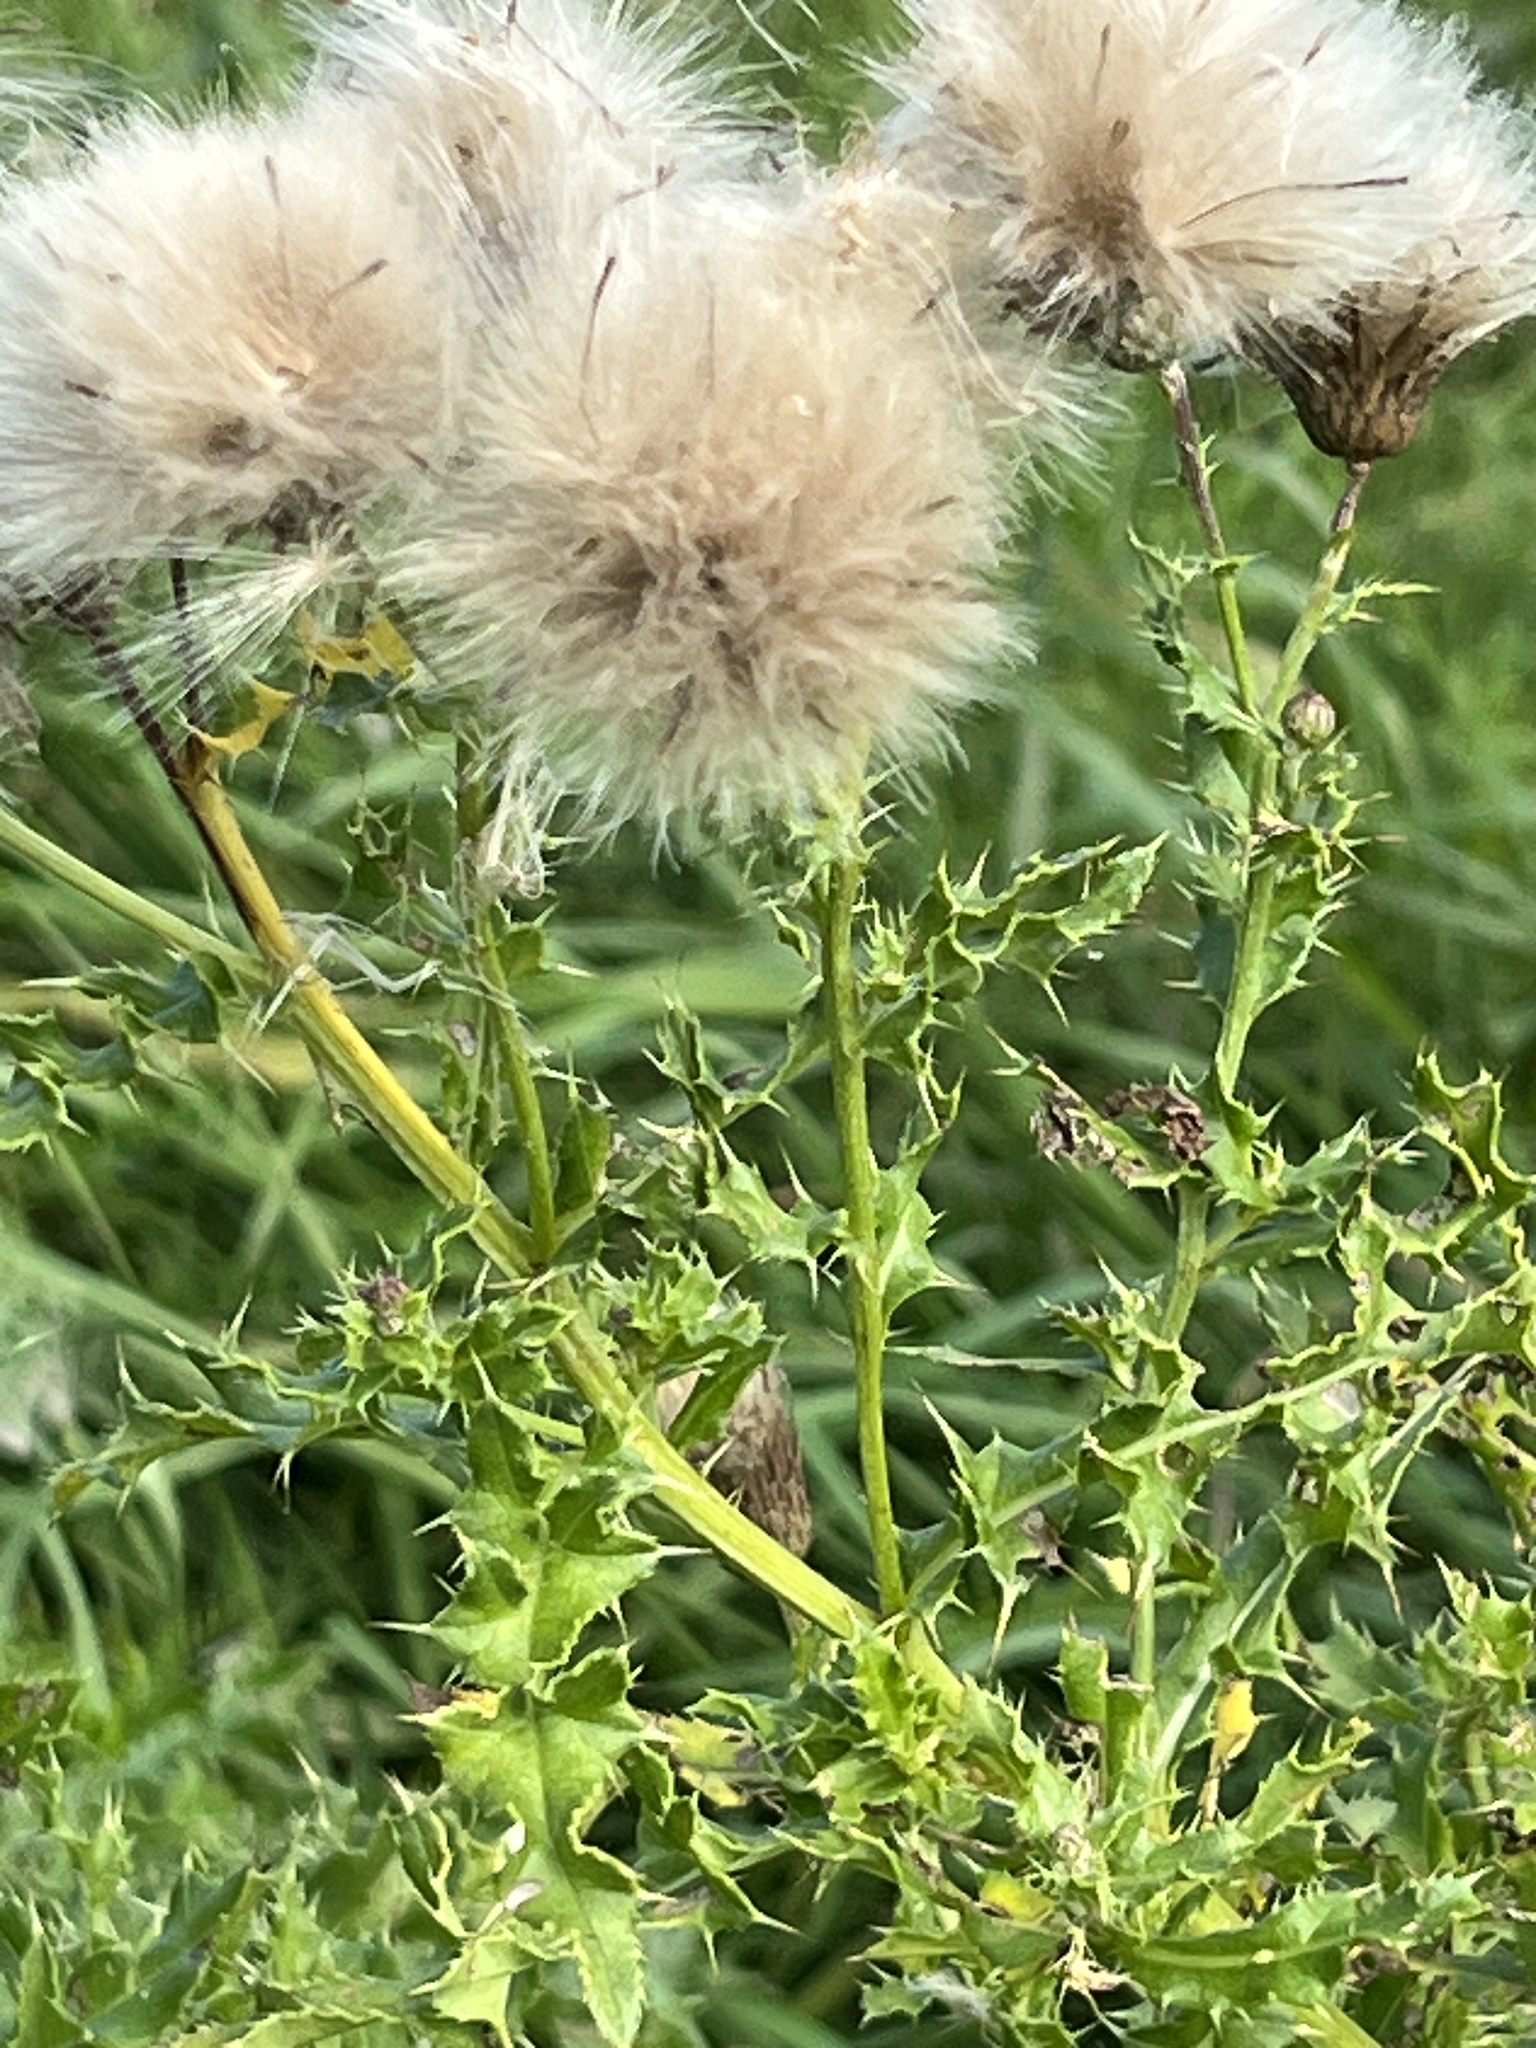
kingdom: Plantae
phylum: Tracheophyta
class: Magnoliopsida
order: Asterales
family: Asteraceae
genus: Cirsium
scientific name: Cirsium arvense
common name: Creeping thistle
